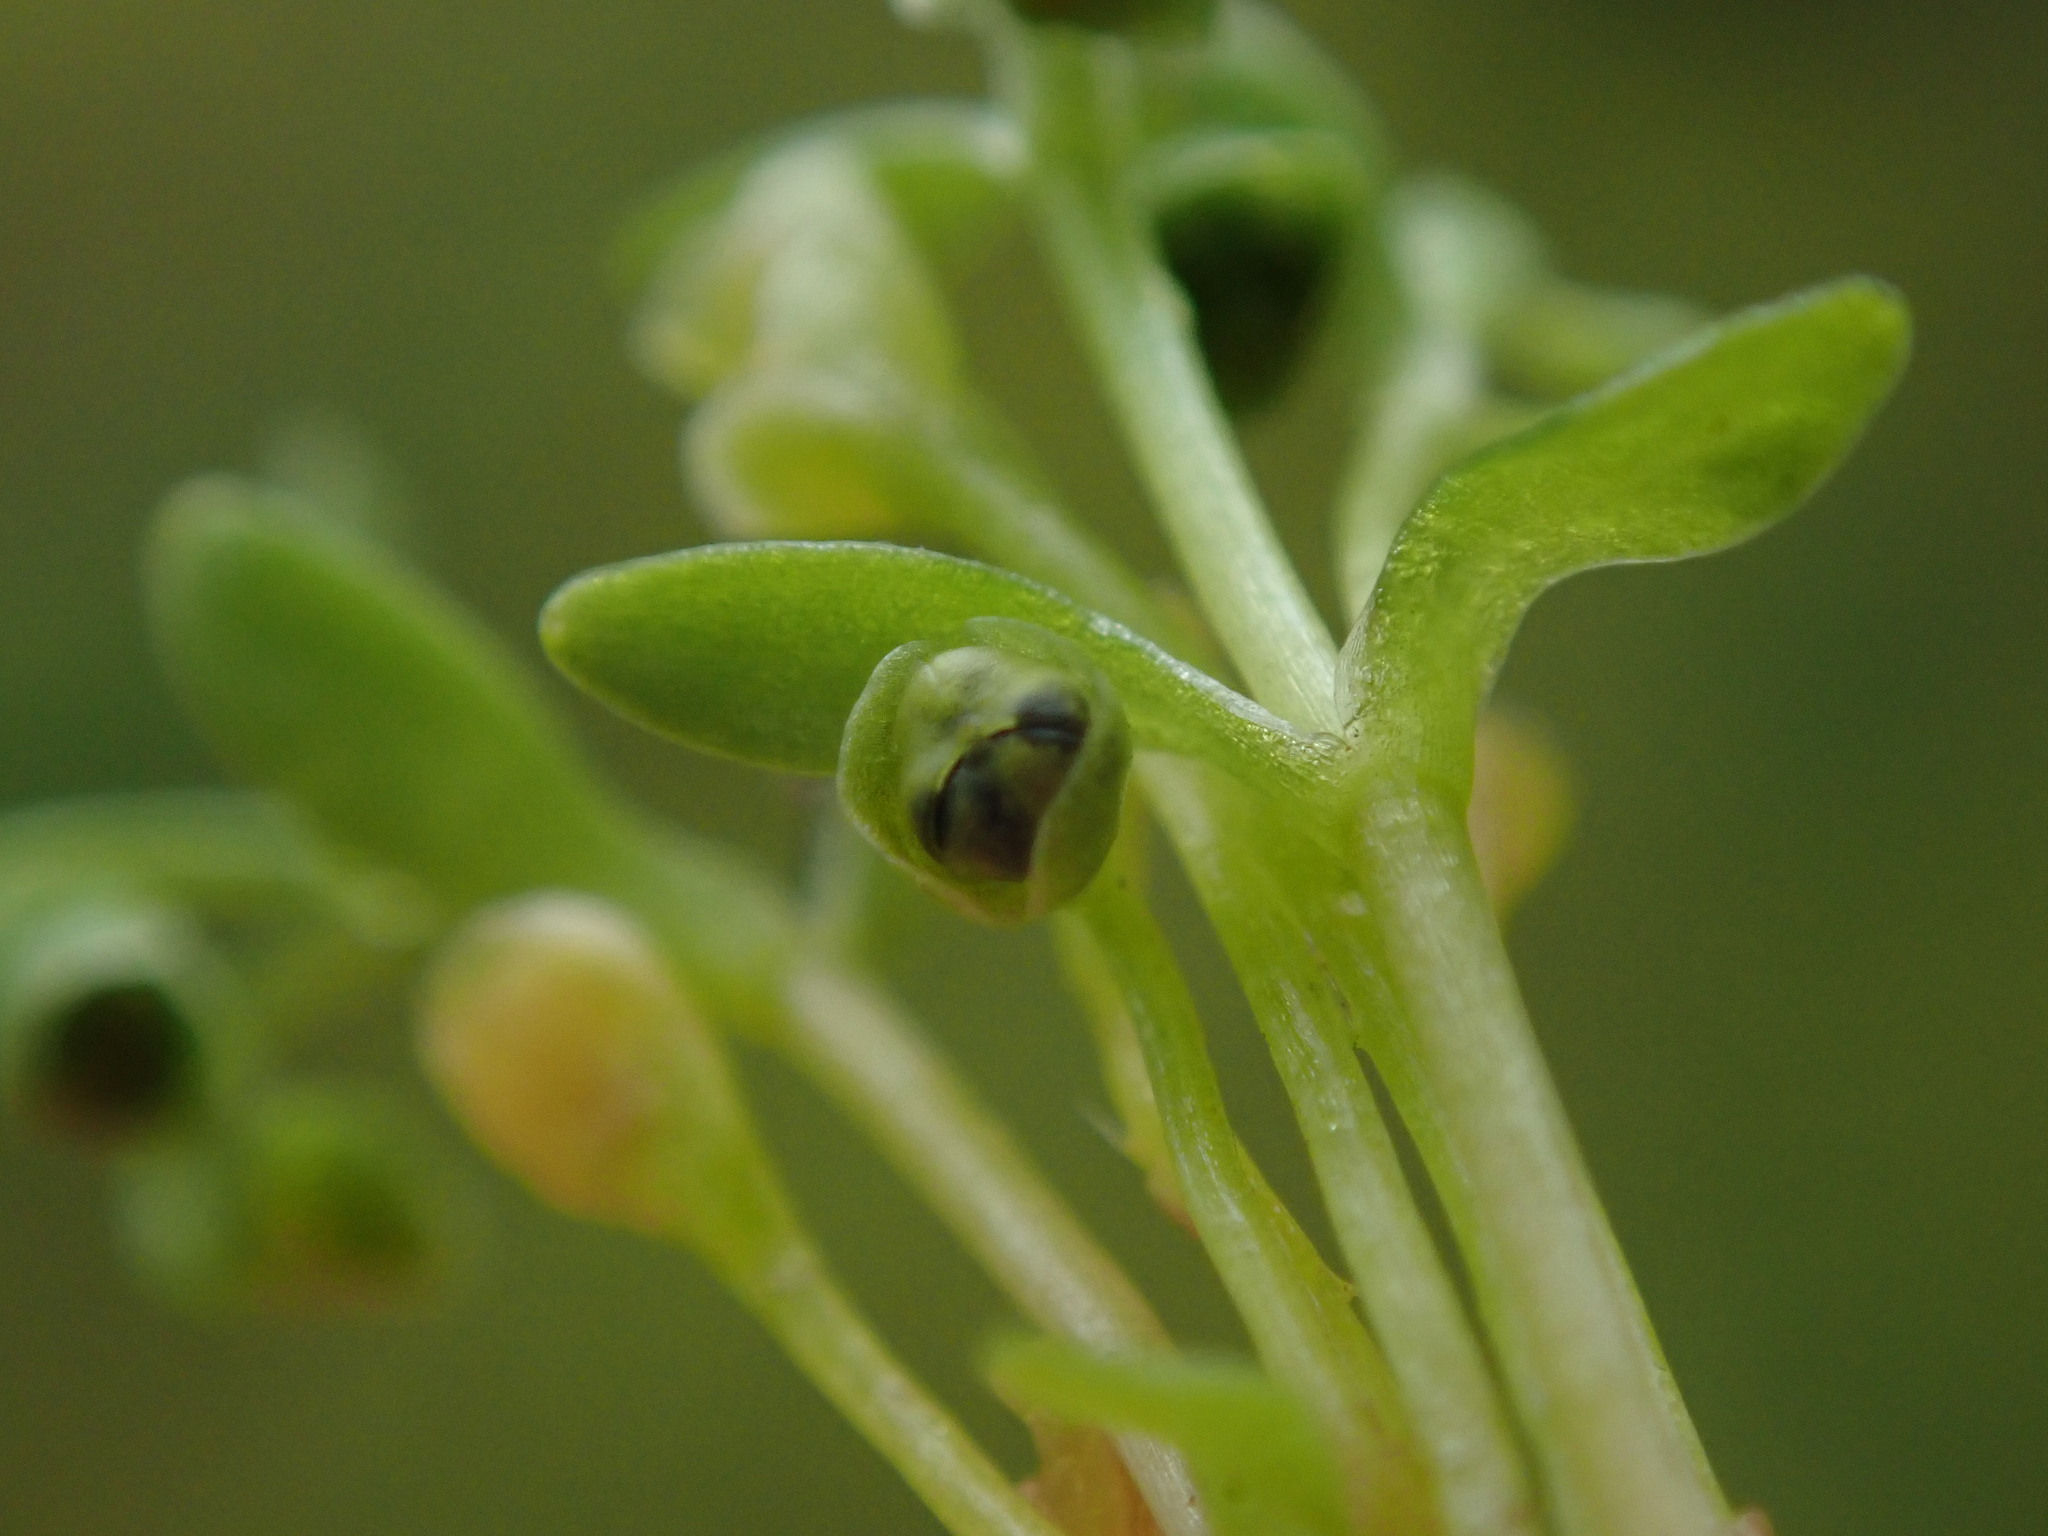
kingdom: Plantae
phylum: Tracheophyta
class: Magnoliopsida
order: Caryophyllales
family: Montiaceae
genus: Montia
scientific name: Montia fontana
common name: Blinks
